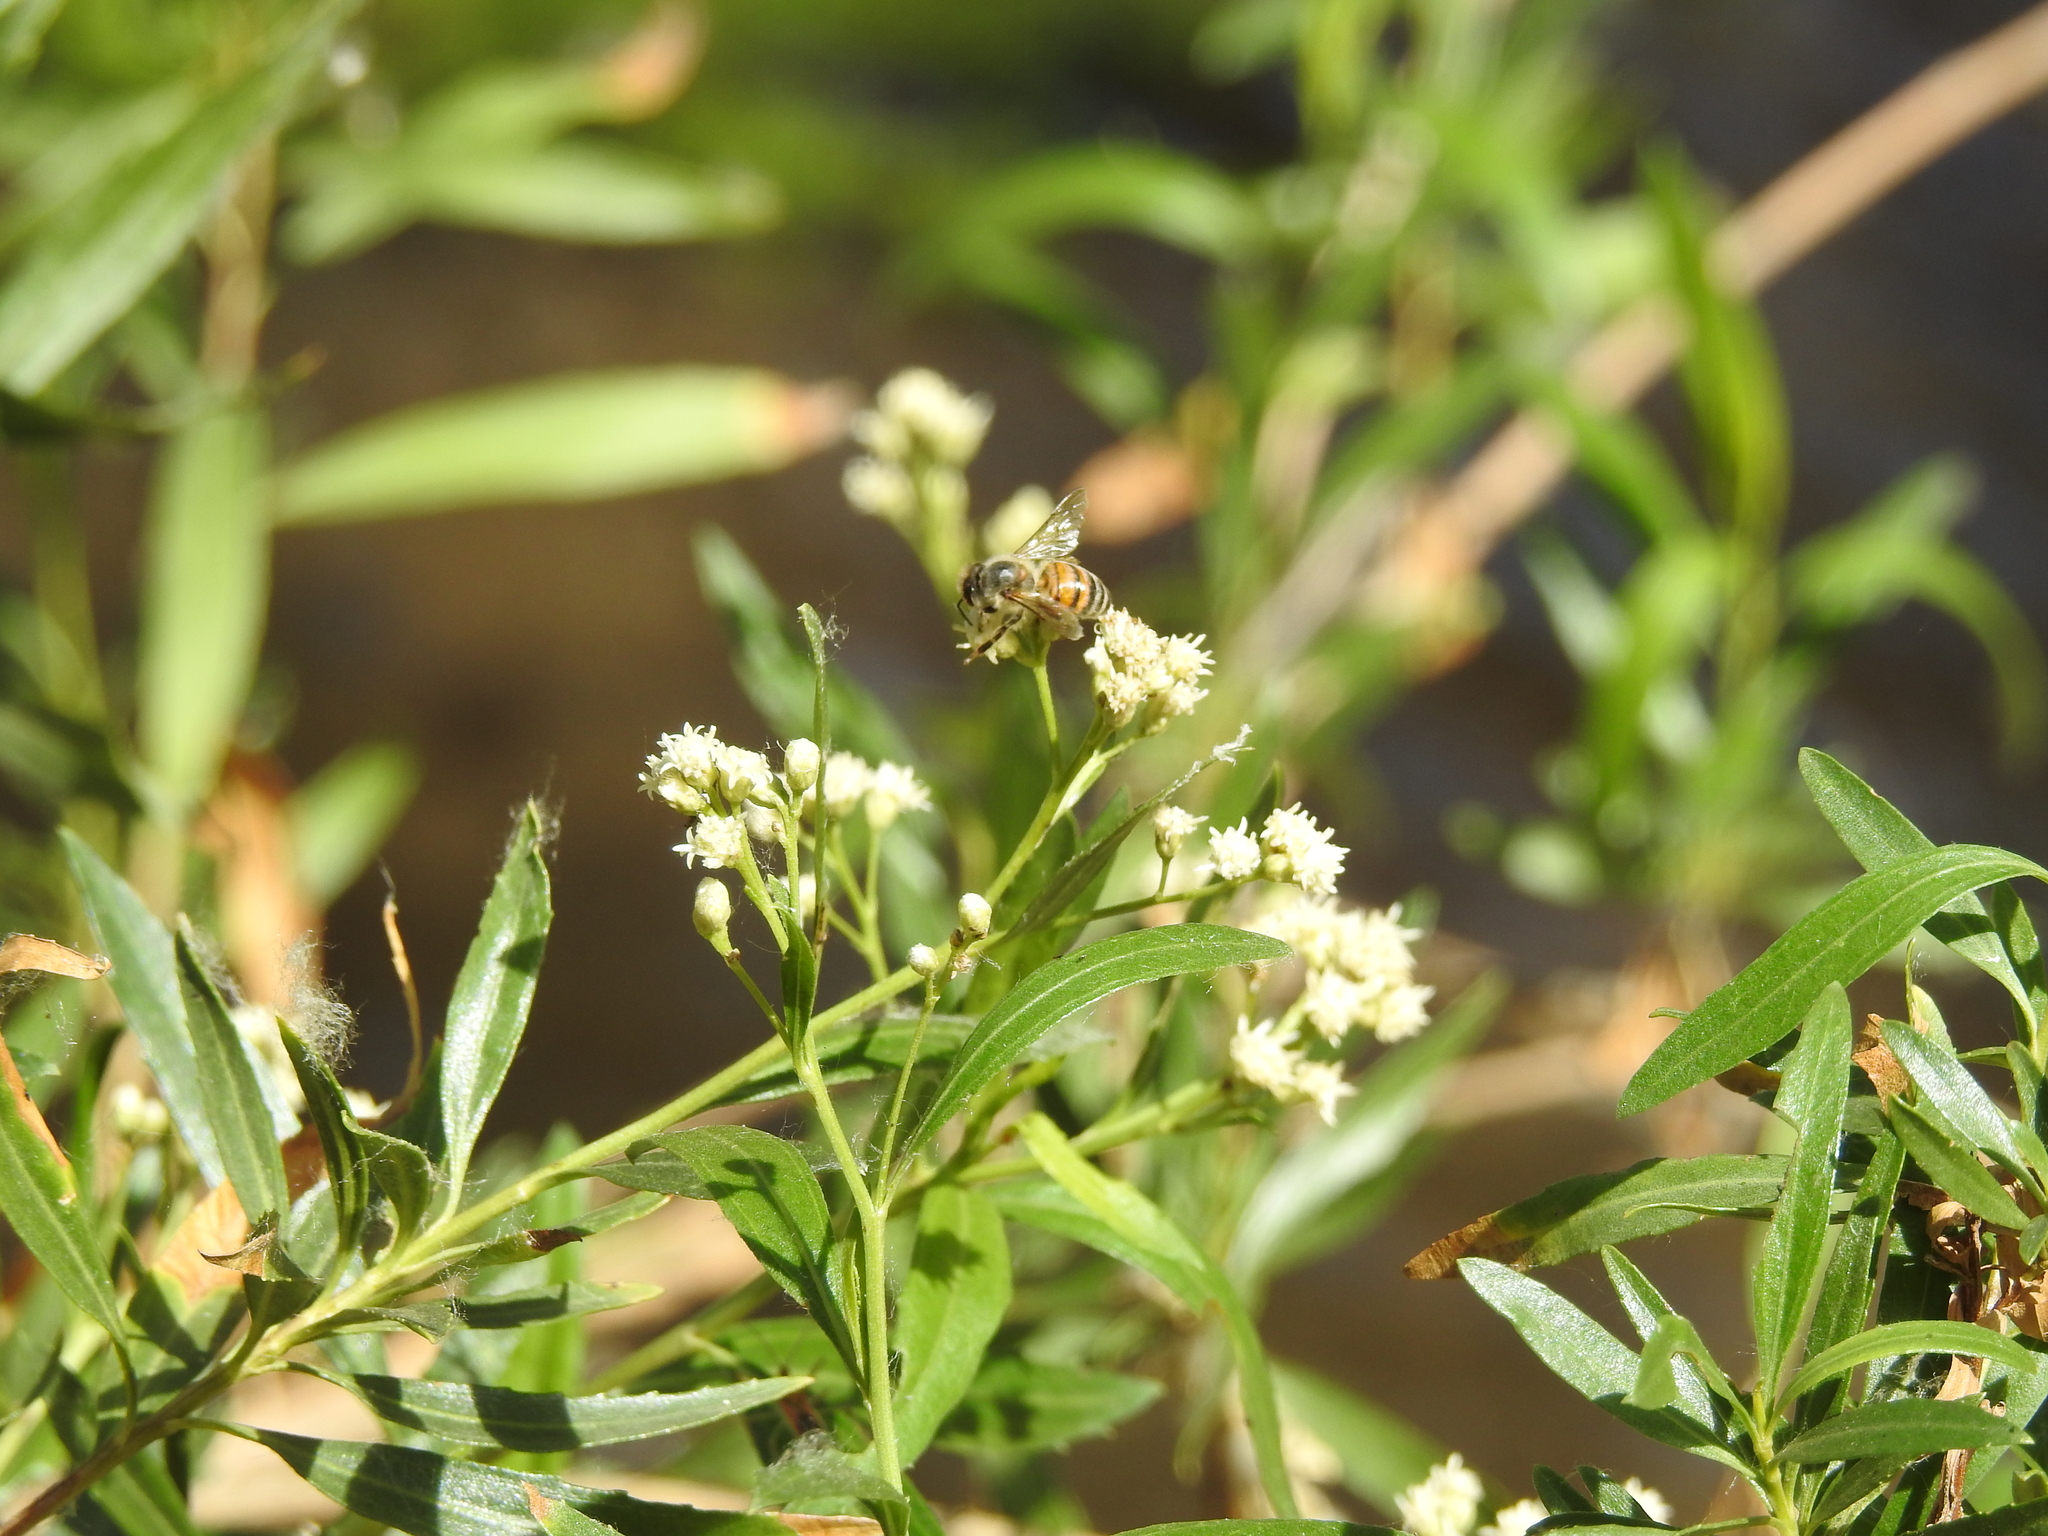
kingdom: Animalia
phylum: Arthropoda
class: Insecta
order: Hymenoptera
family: Apidae
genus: Apis
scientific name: Apis mellifera
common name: Honey bee
